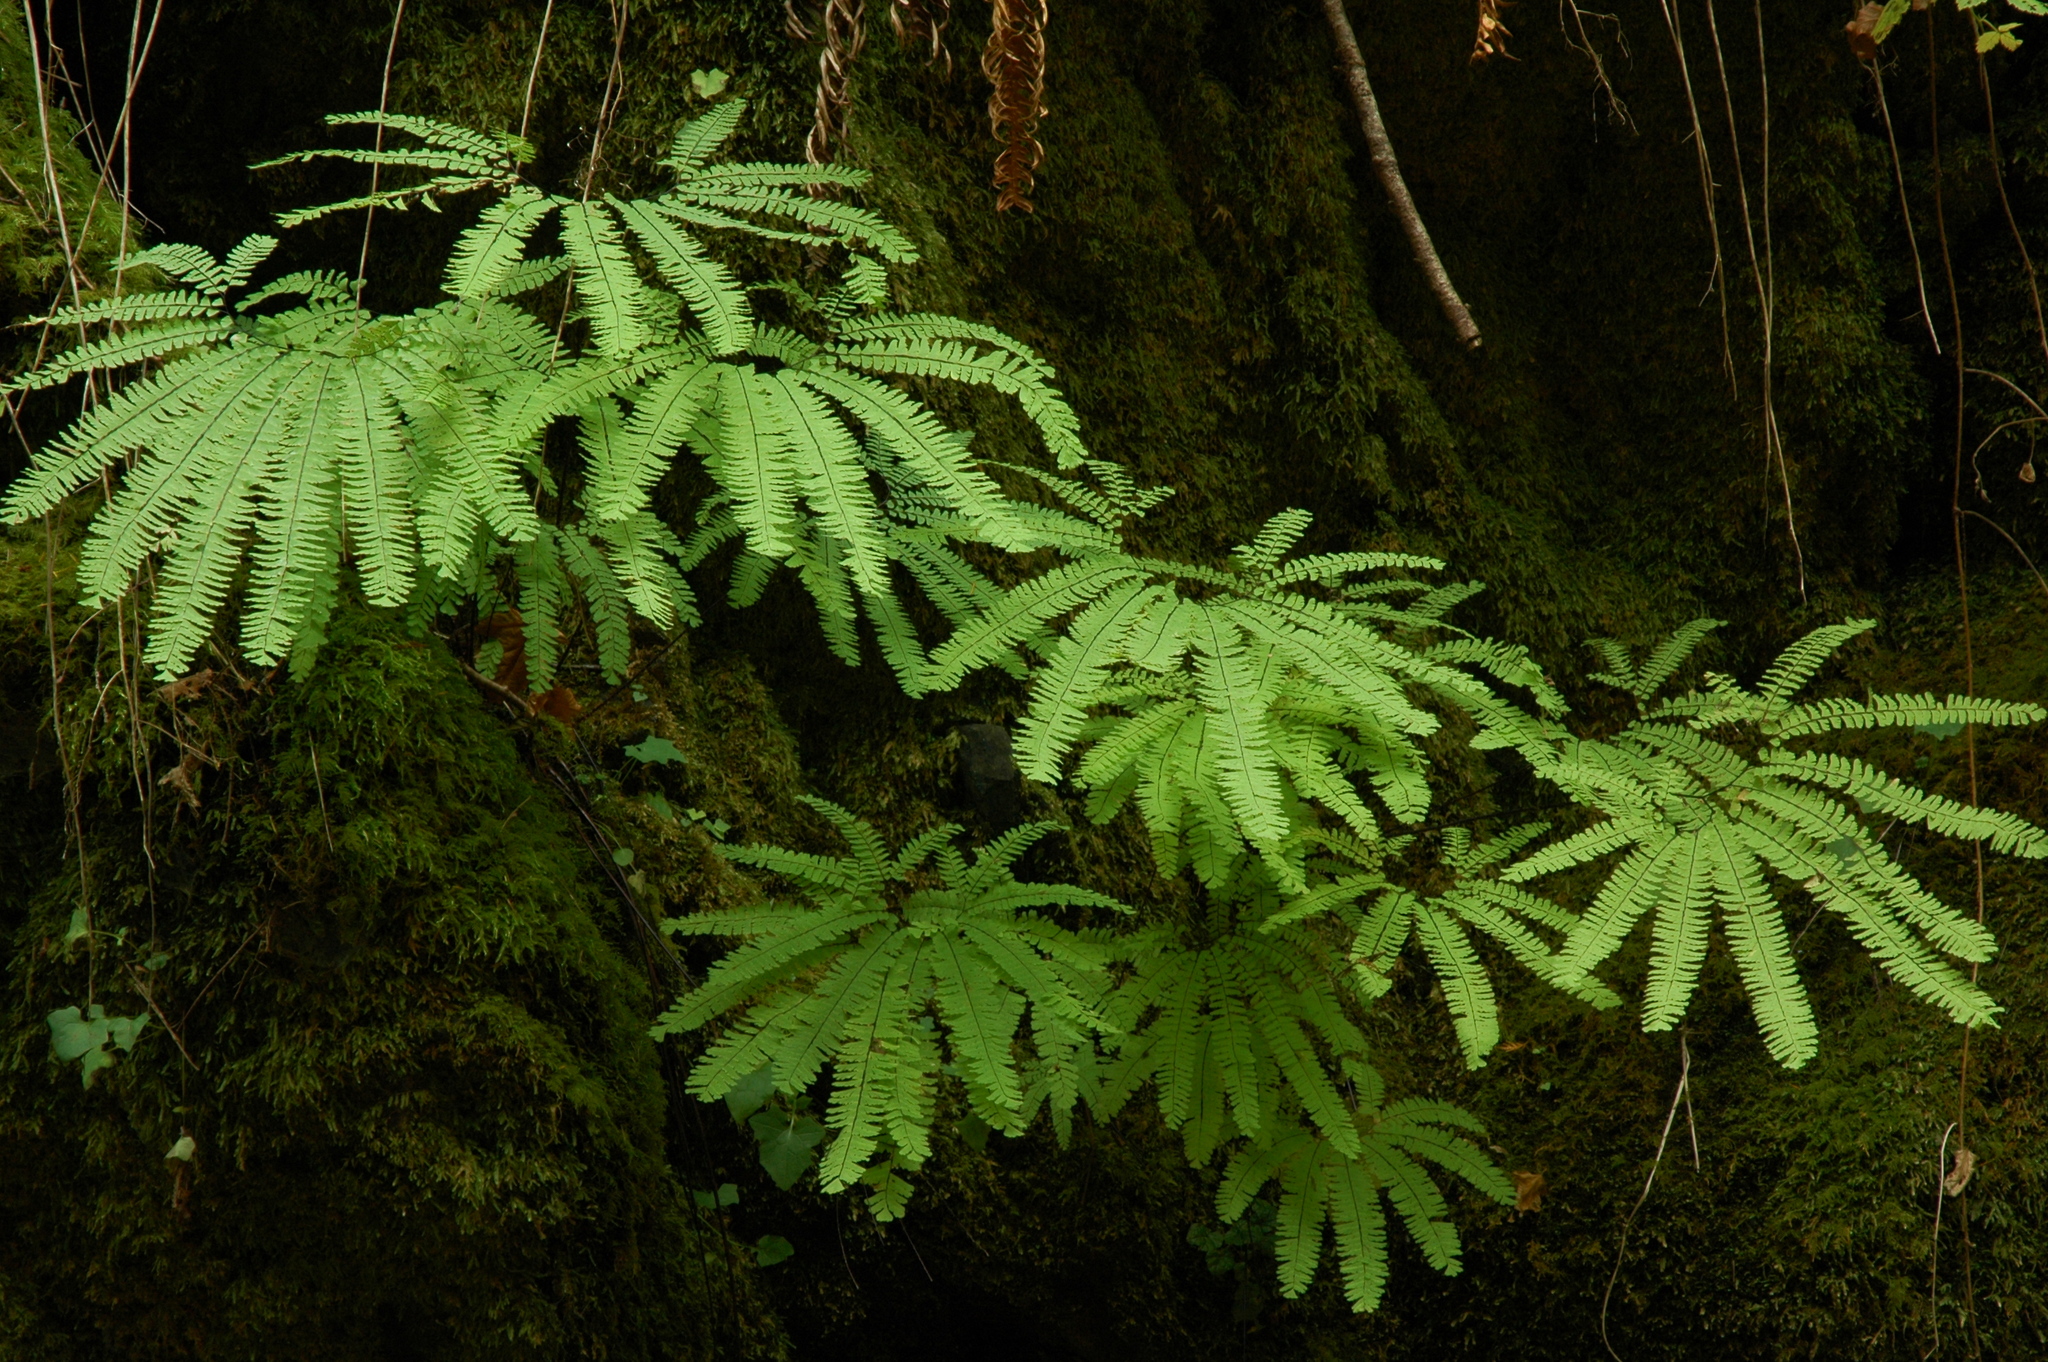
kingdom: Plantae
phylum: Tracheophyta
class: Polypodiopsida
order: Polypodiales
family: Pteridaceae
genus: Adiantum
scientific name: Adiantum aleuticum
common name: Aleutian maidenhair fern
